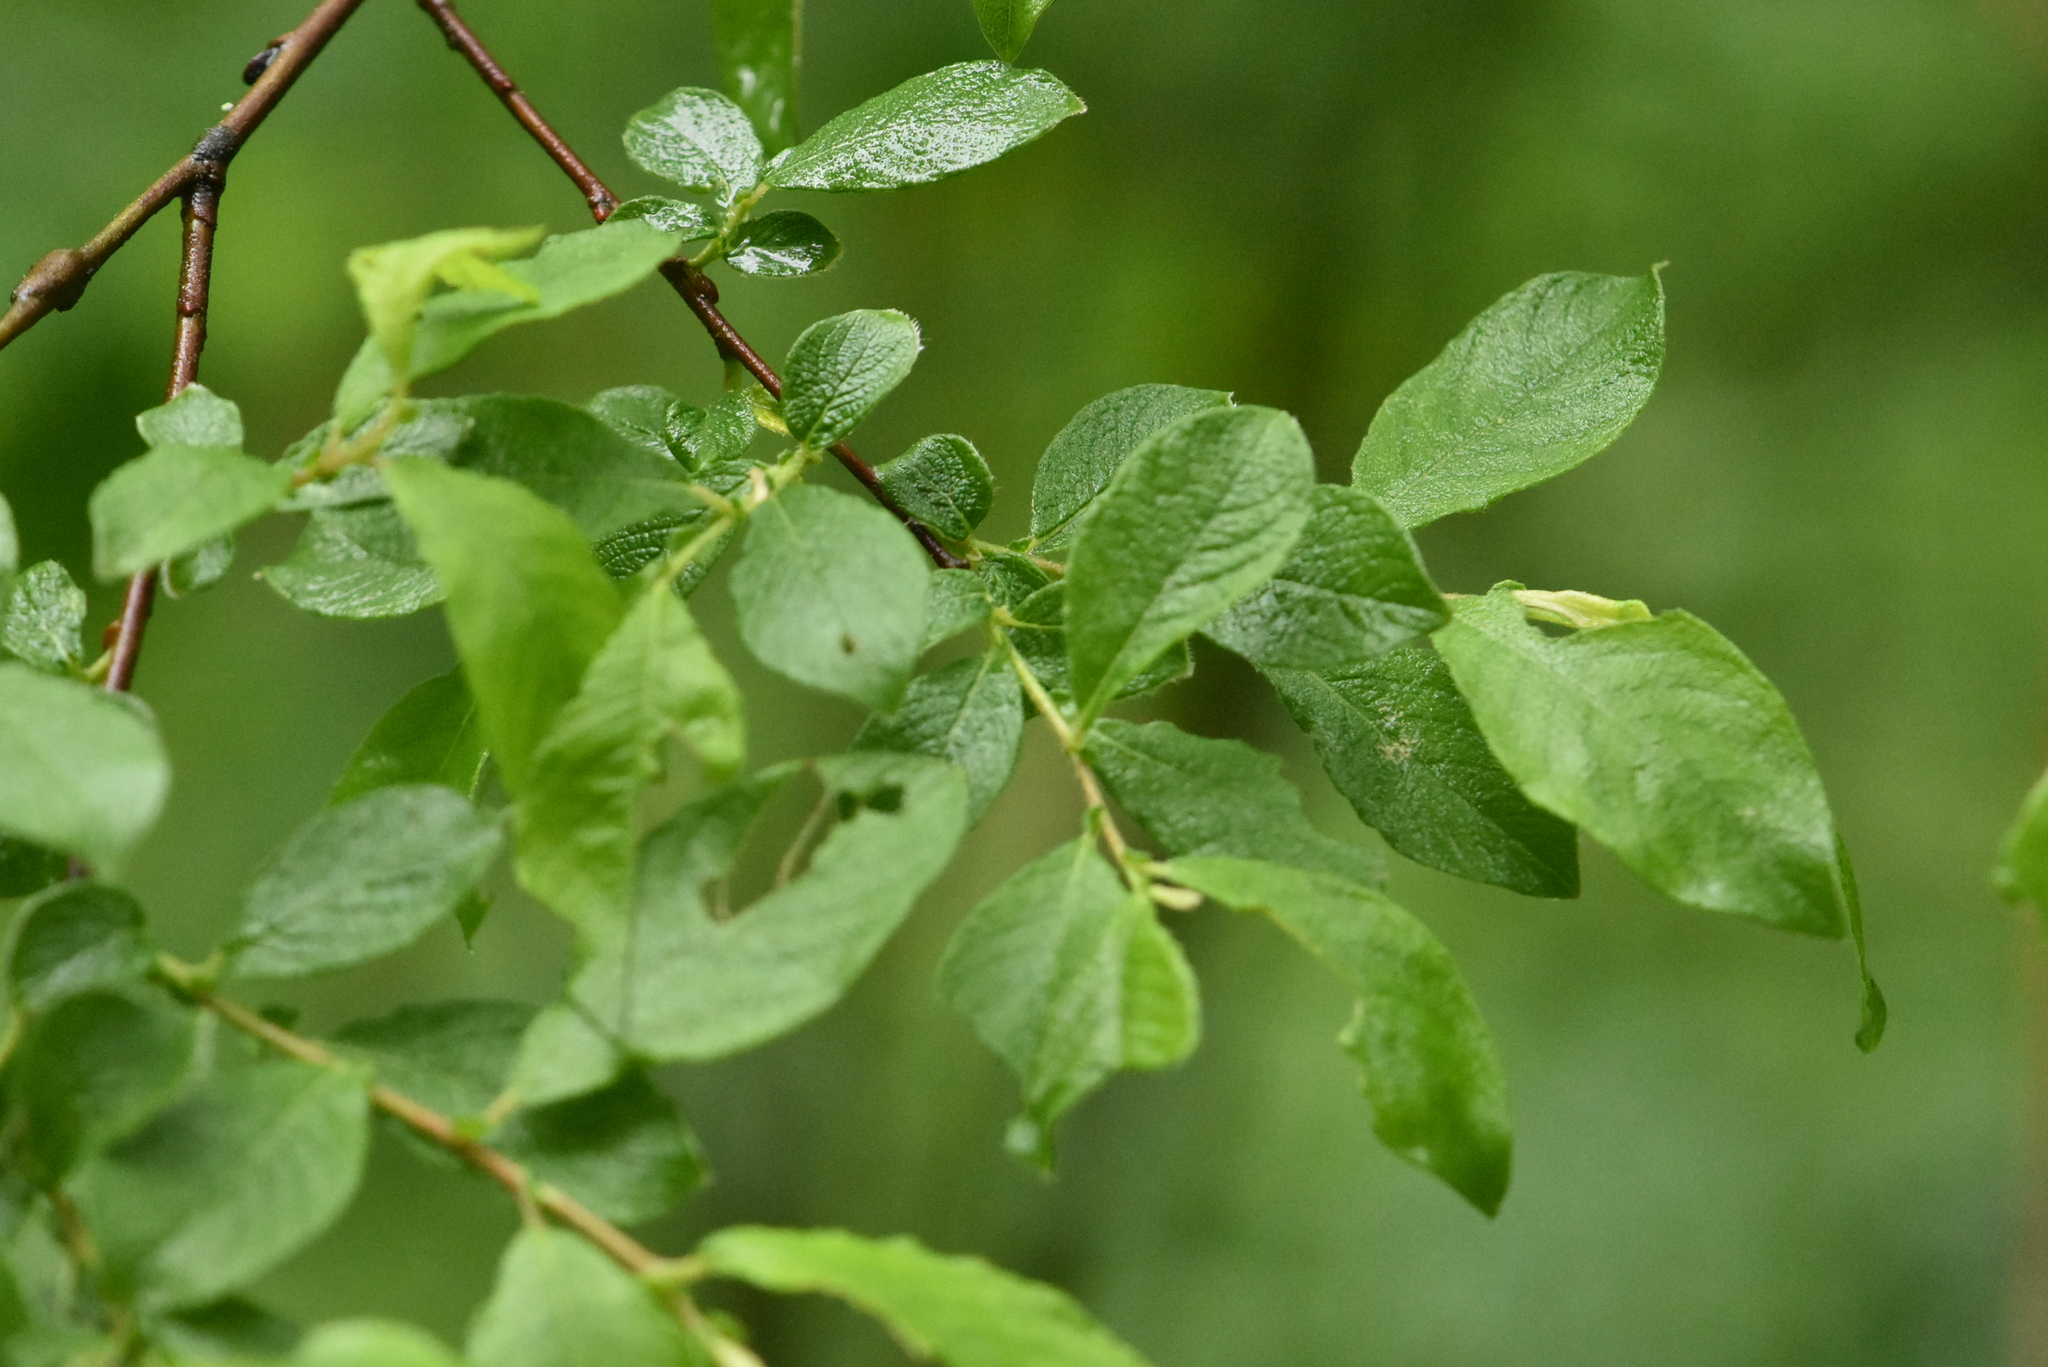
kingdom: Plantae
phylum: Tracheophyta
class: Magnoliopsida
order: Malpighiales
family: Salicaceae
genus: Salix
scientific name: Salix aurita
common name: Eared willow
